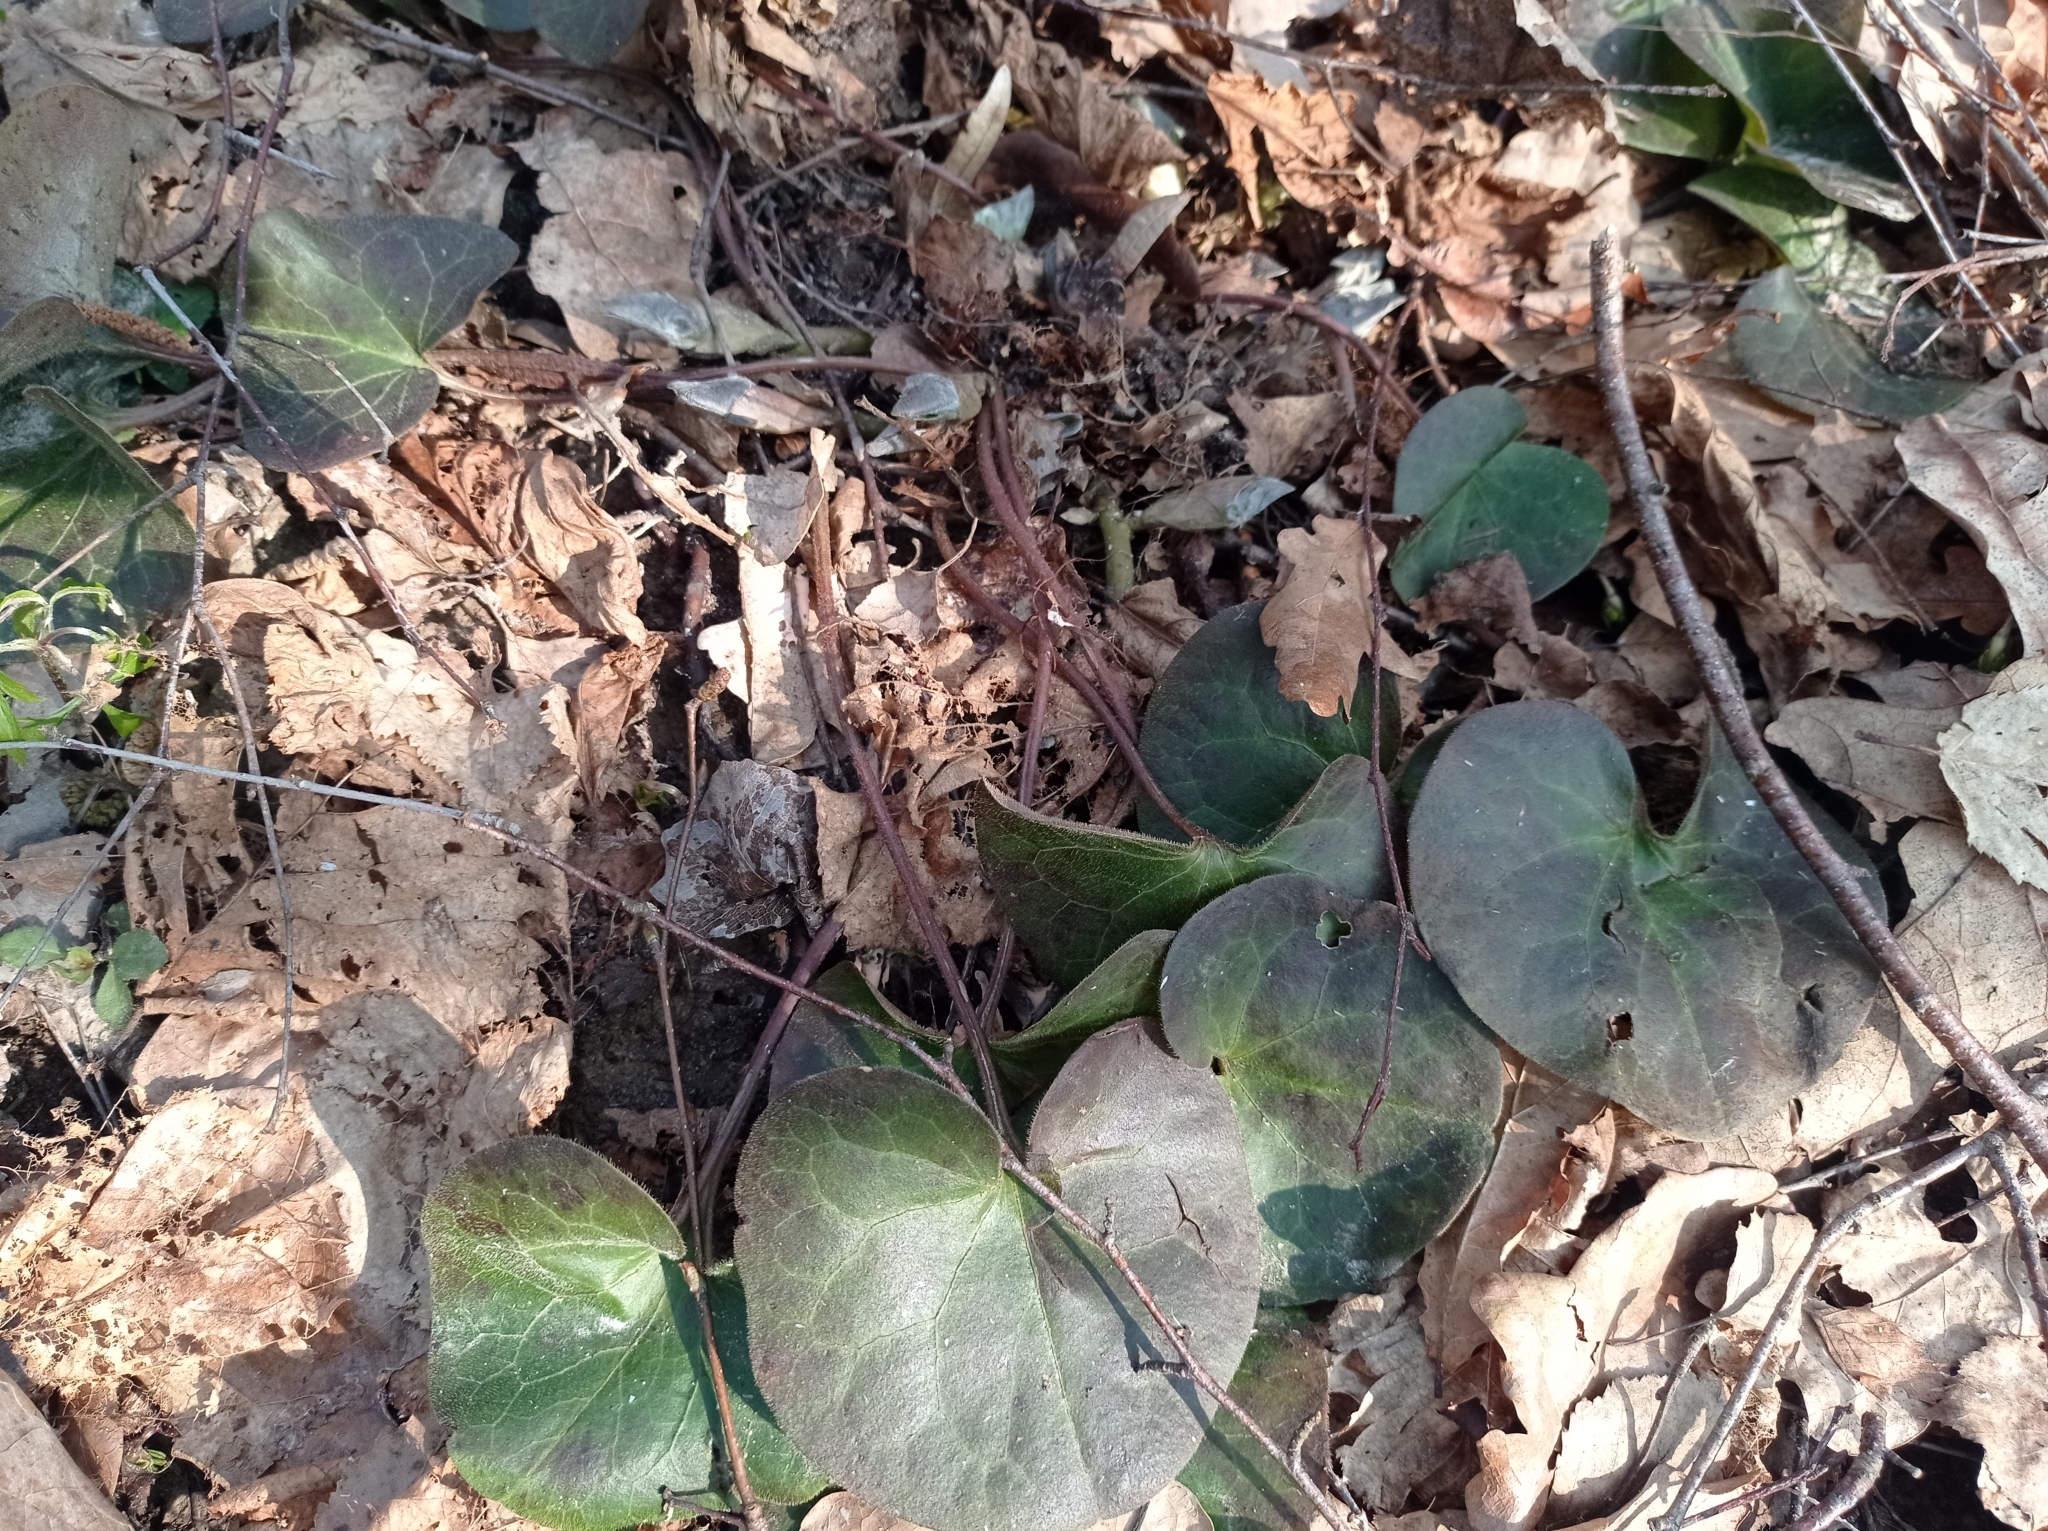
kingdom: Plantae
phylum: Tracheophyta
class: Magnoliopsida
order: Piperales
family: Aristolochiaceae
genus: Asarum
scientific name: Asarum europaeum
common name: Asarabacca
